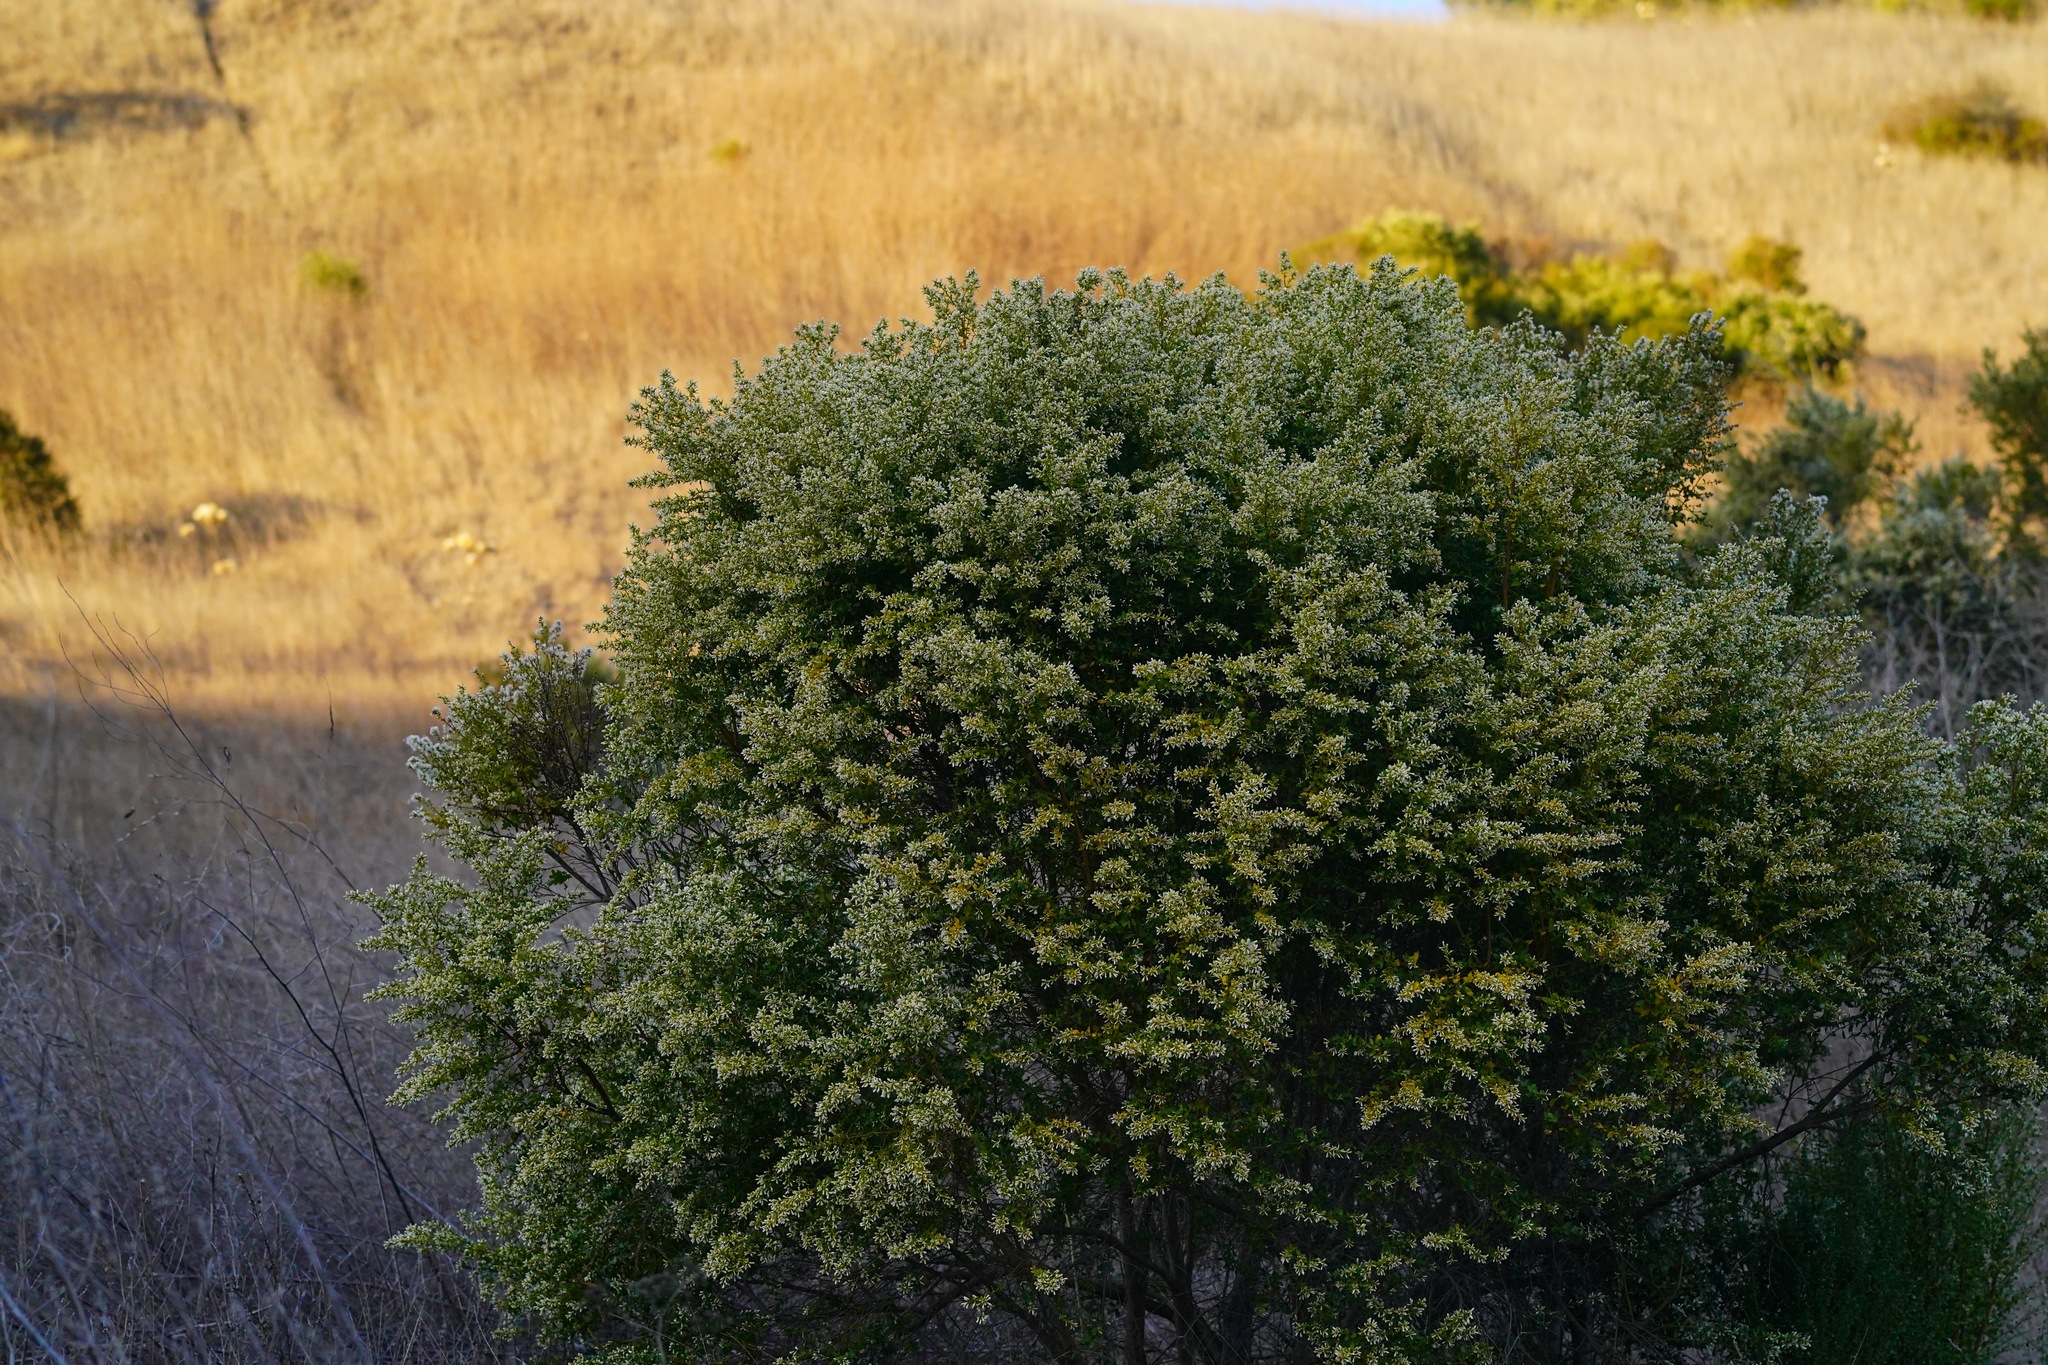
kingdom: Plantae
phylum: Tracheophyta
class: Magnoliopsida
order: Asterales
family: Asteraceae
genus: Baccharis
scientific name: Baccharis pilularis
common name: Coyotebrush
